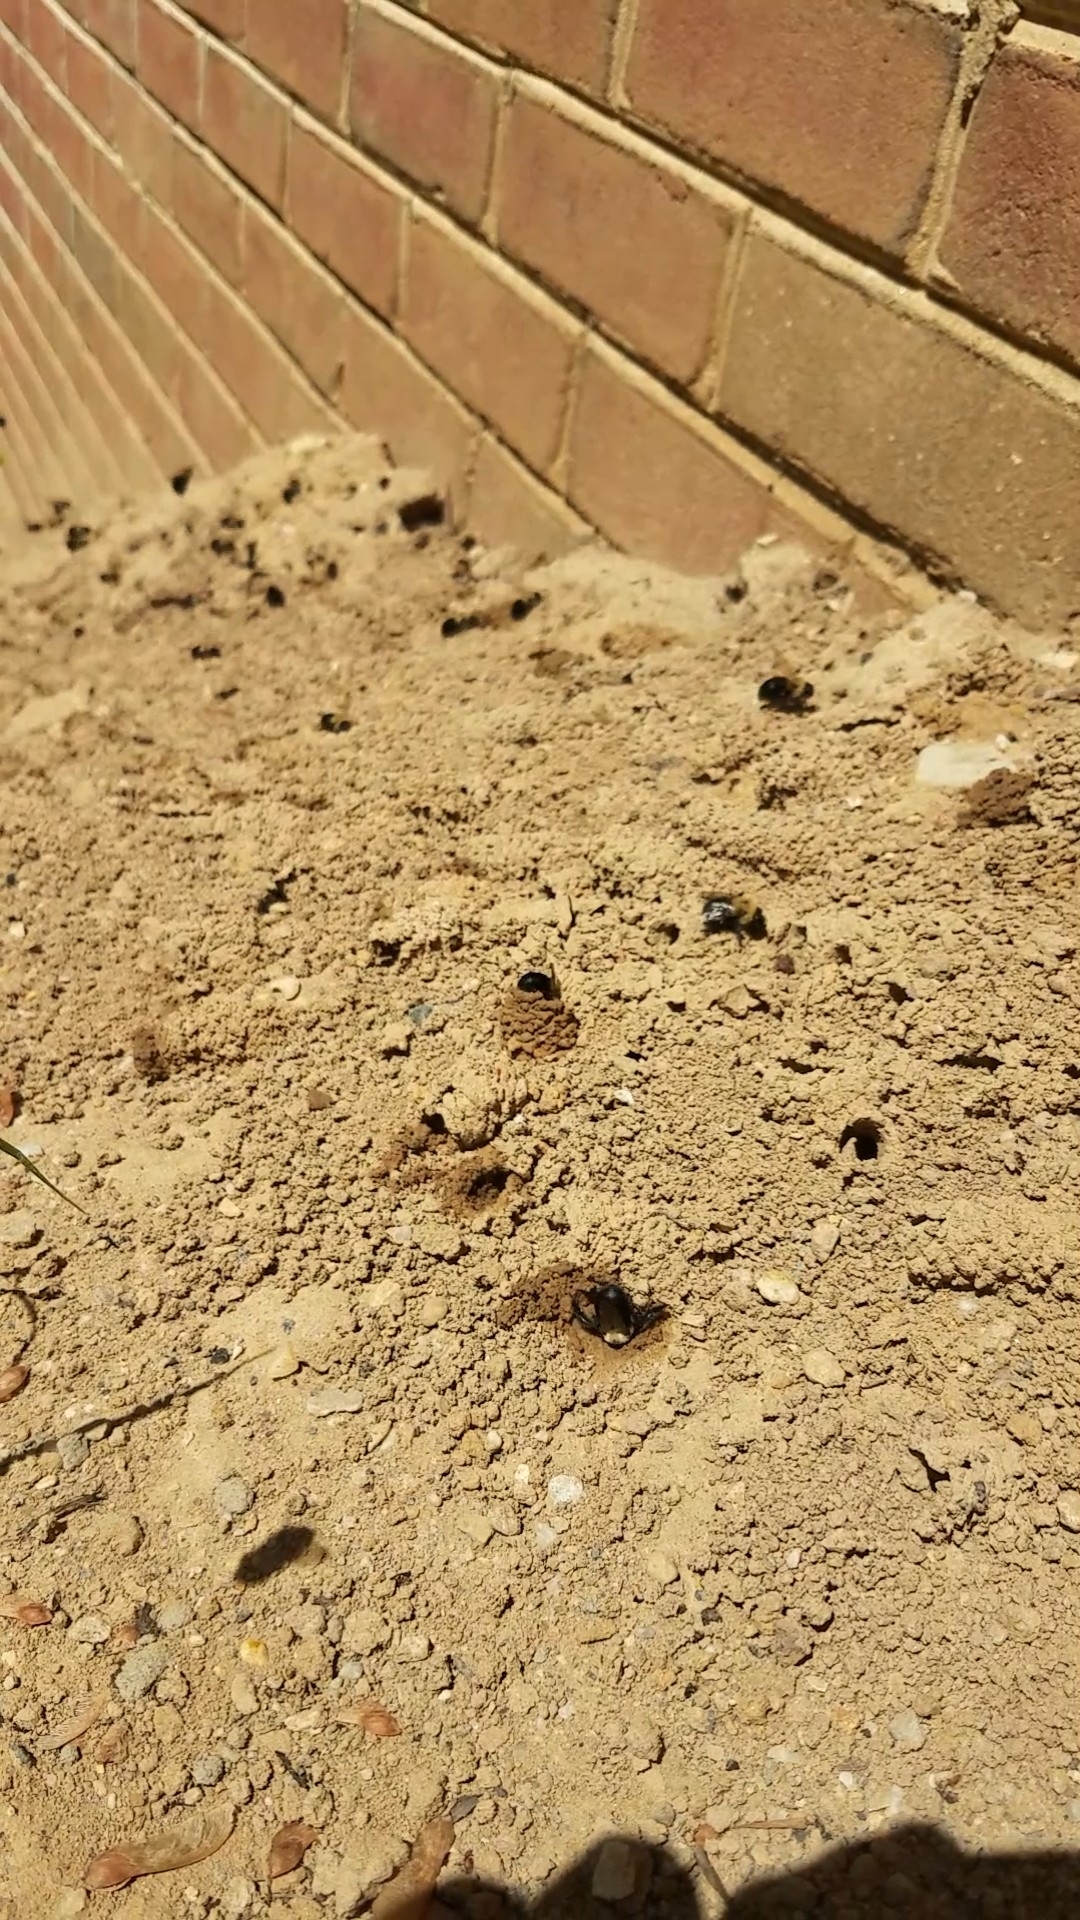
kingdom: Animalia
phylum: Arthropoda
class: Insecta
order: Hymenoptera
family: Apidae
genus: Anthophora
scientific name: Anthophora abrupta
